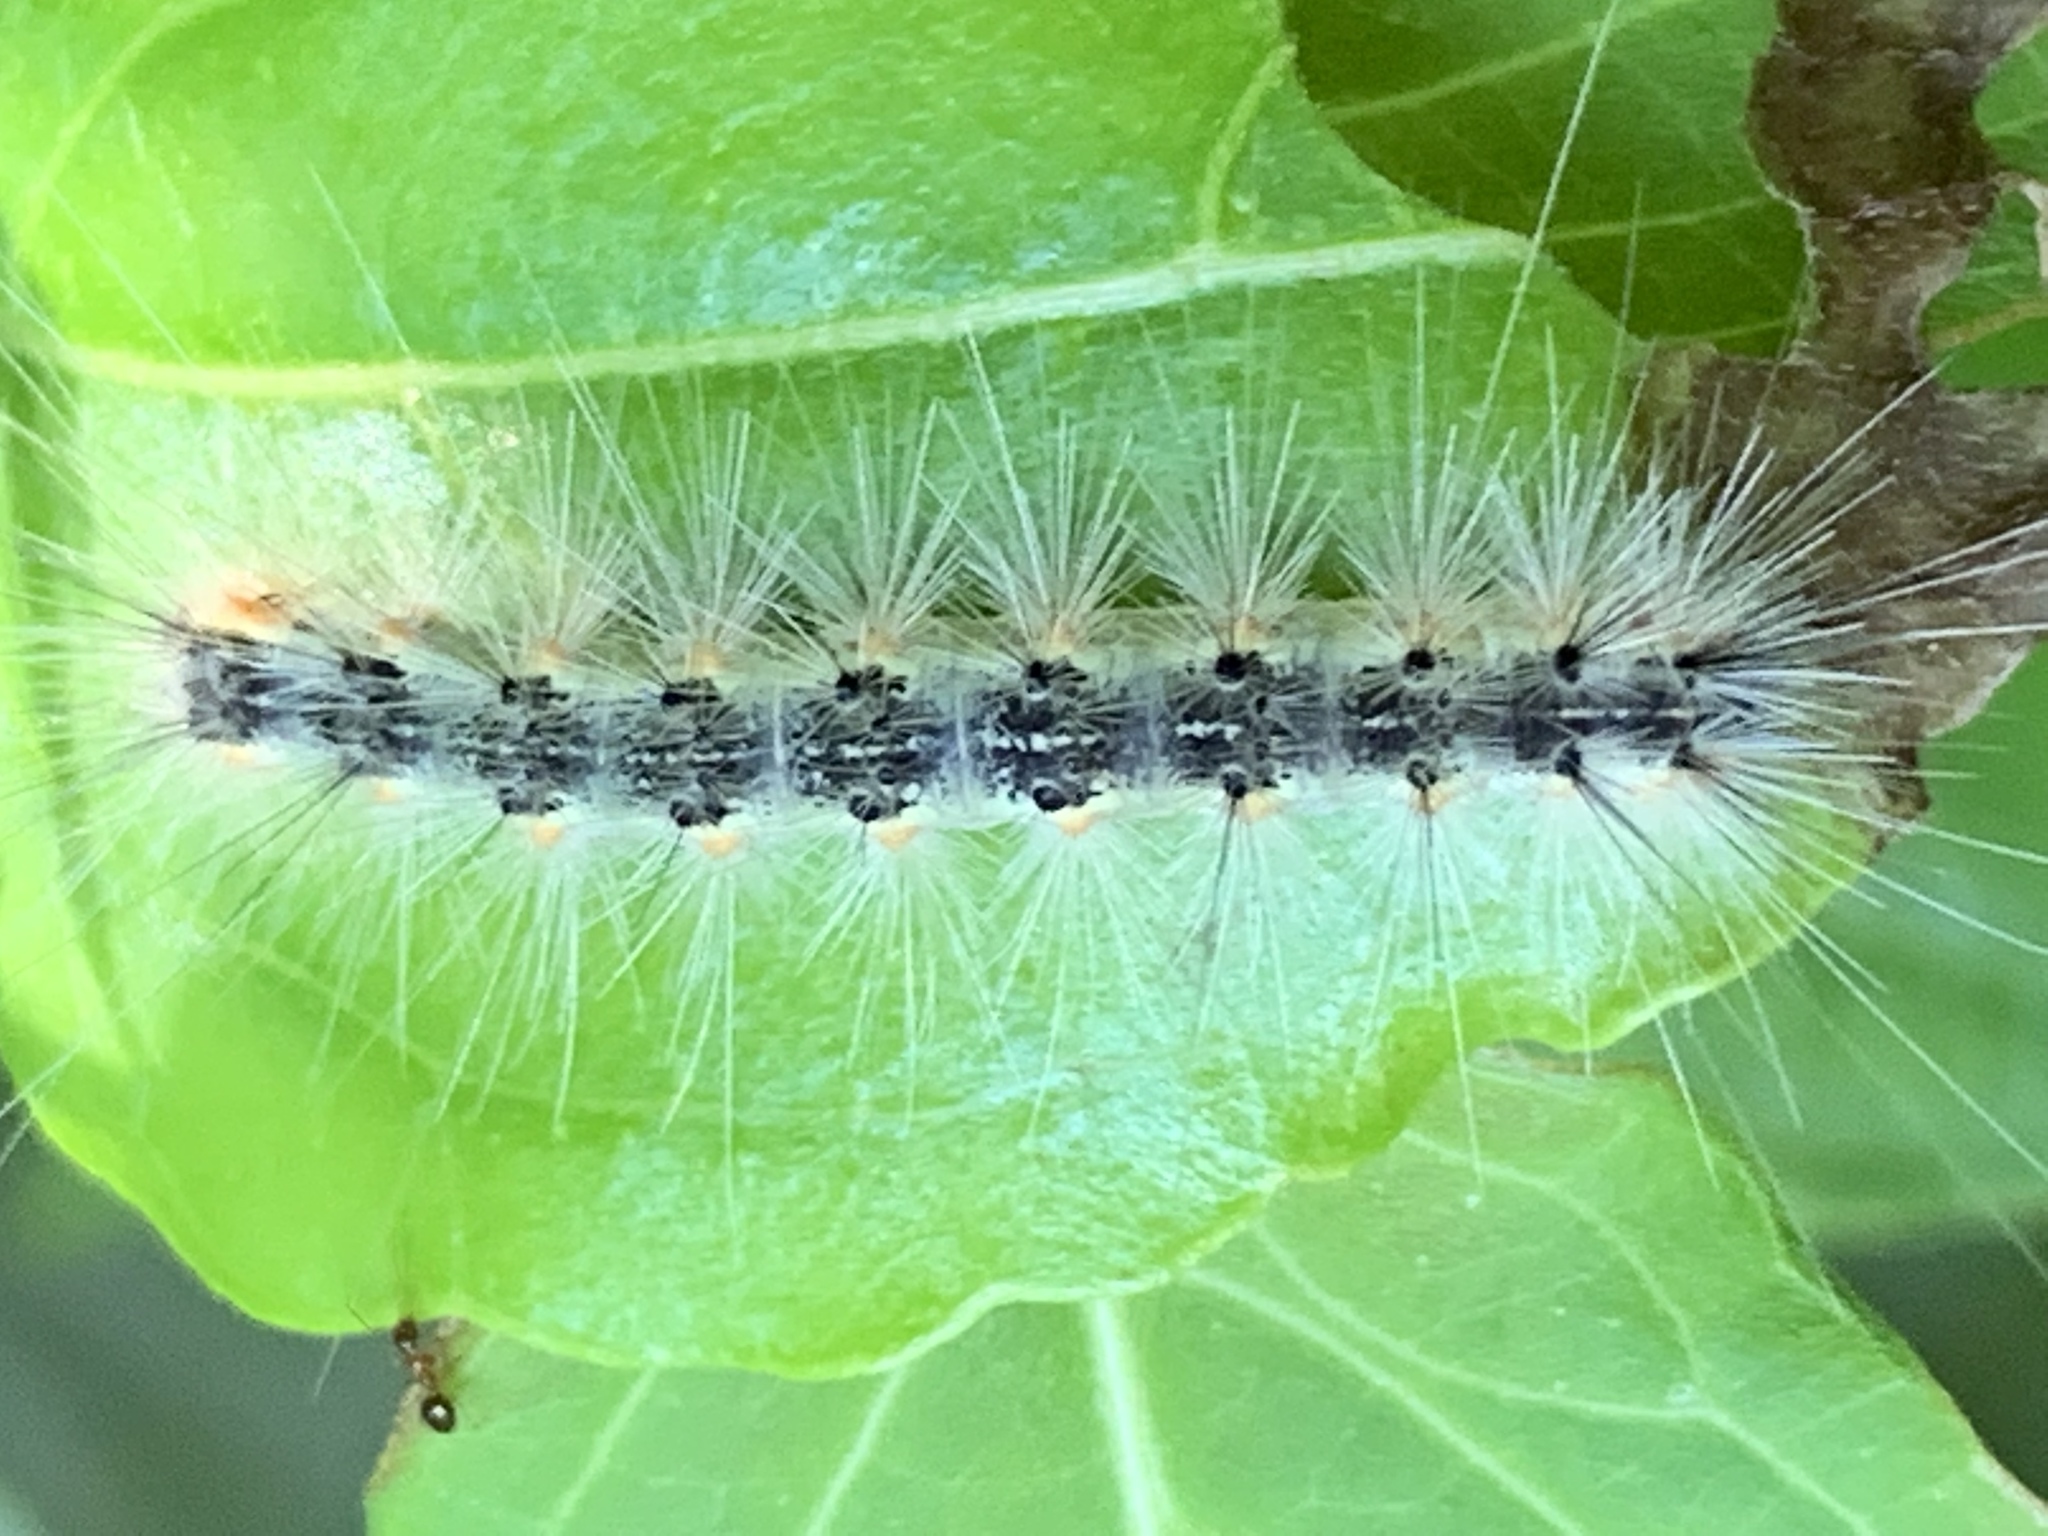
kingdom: Animalia
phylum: Arthropoda
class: Insecta
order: Lepidoptera
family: Erebidae
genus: Hyphantria
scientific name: Hyphantria cunea
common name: American white moth
